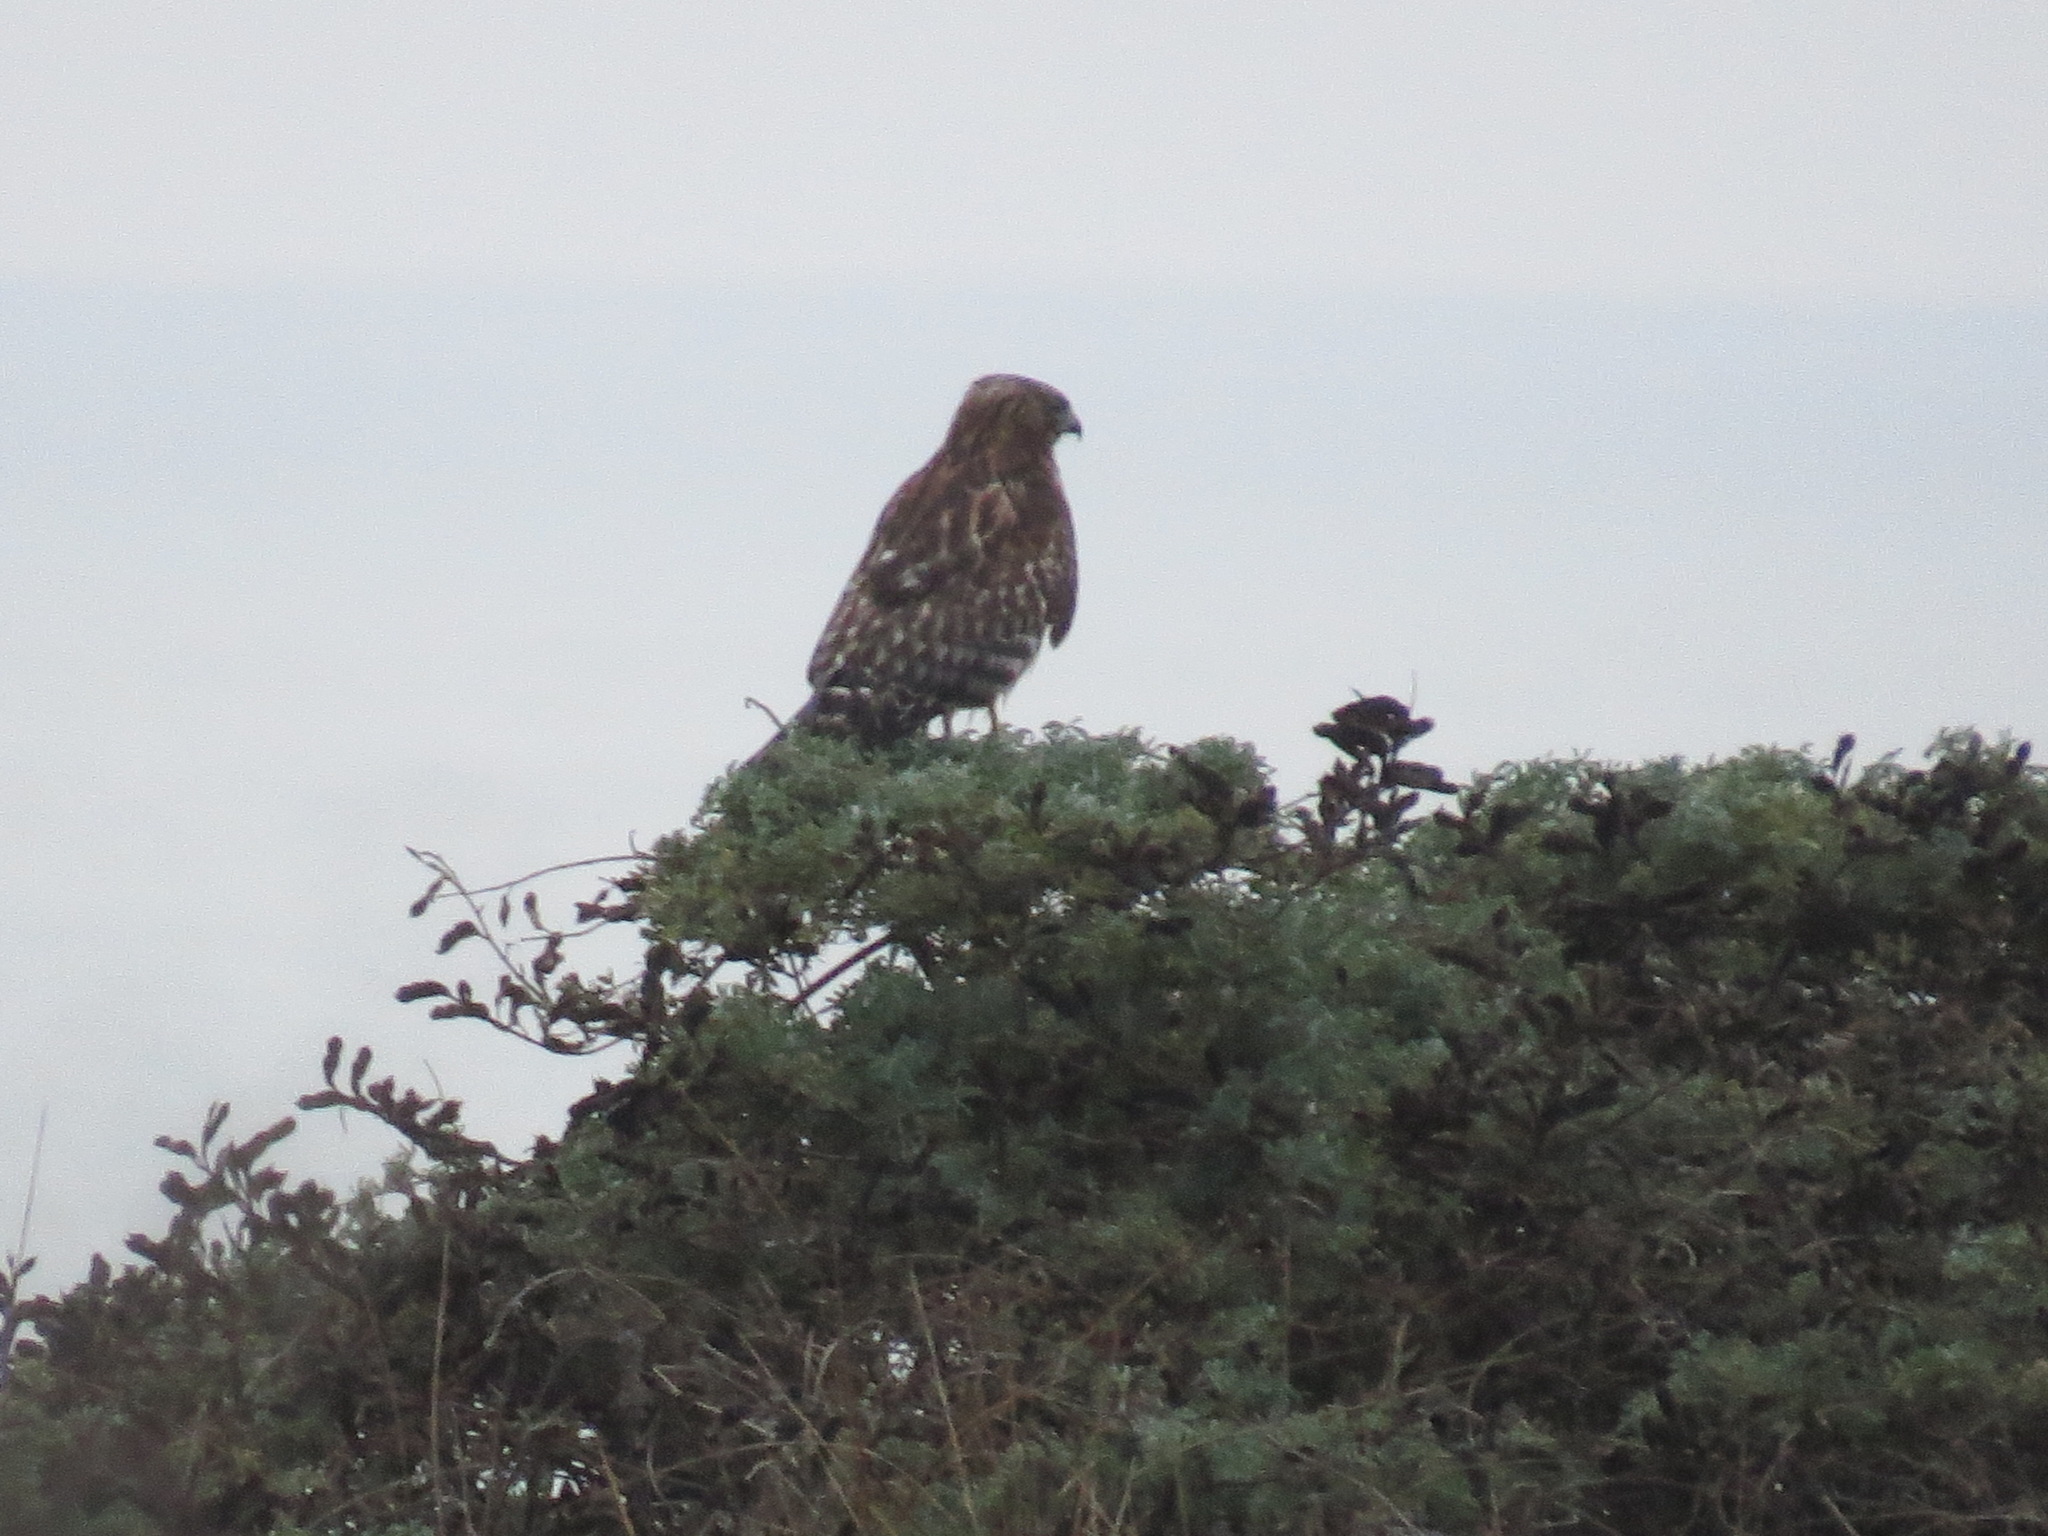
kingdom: Animalia
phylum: Chordata
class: Aves
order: Accipitriformes
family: Accipitridae
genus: Buteo
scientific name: Buteo lineatus
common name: Red-shouldered hawk
